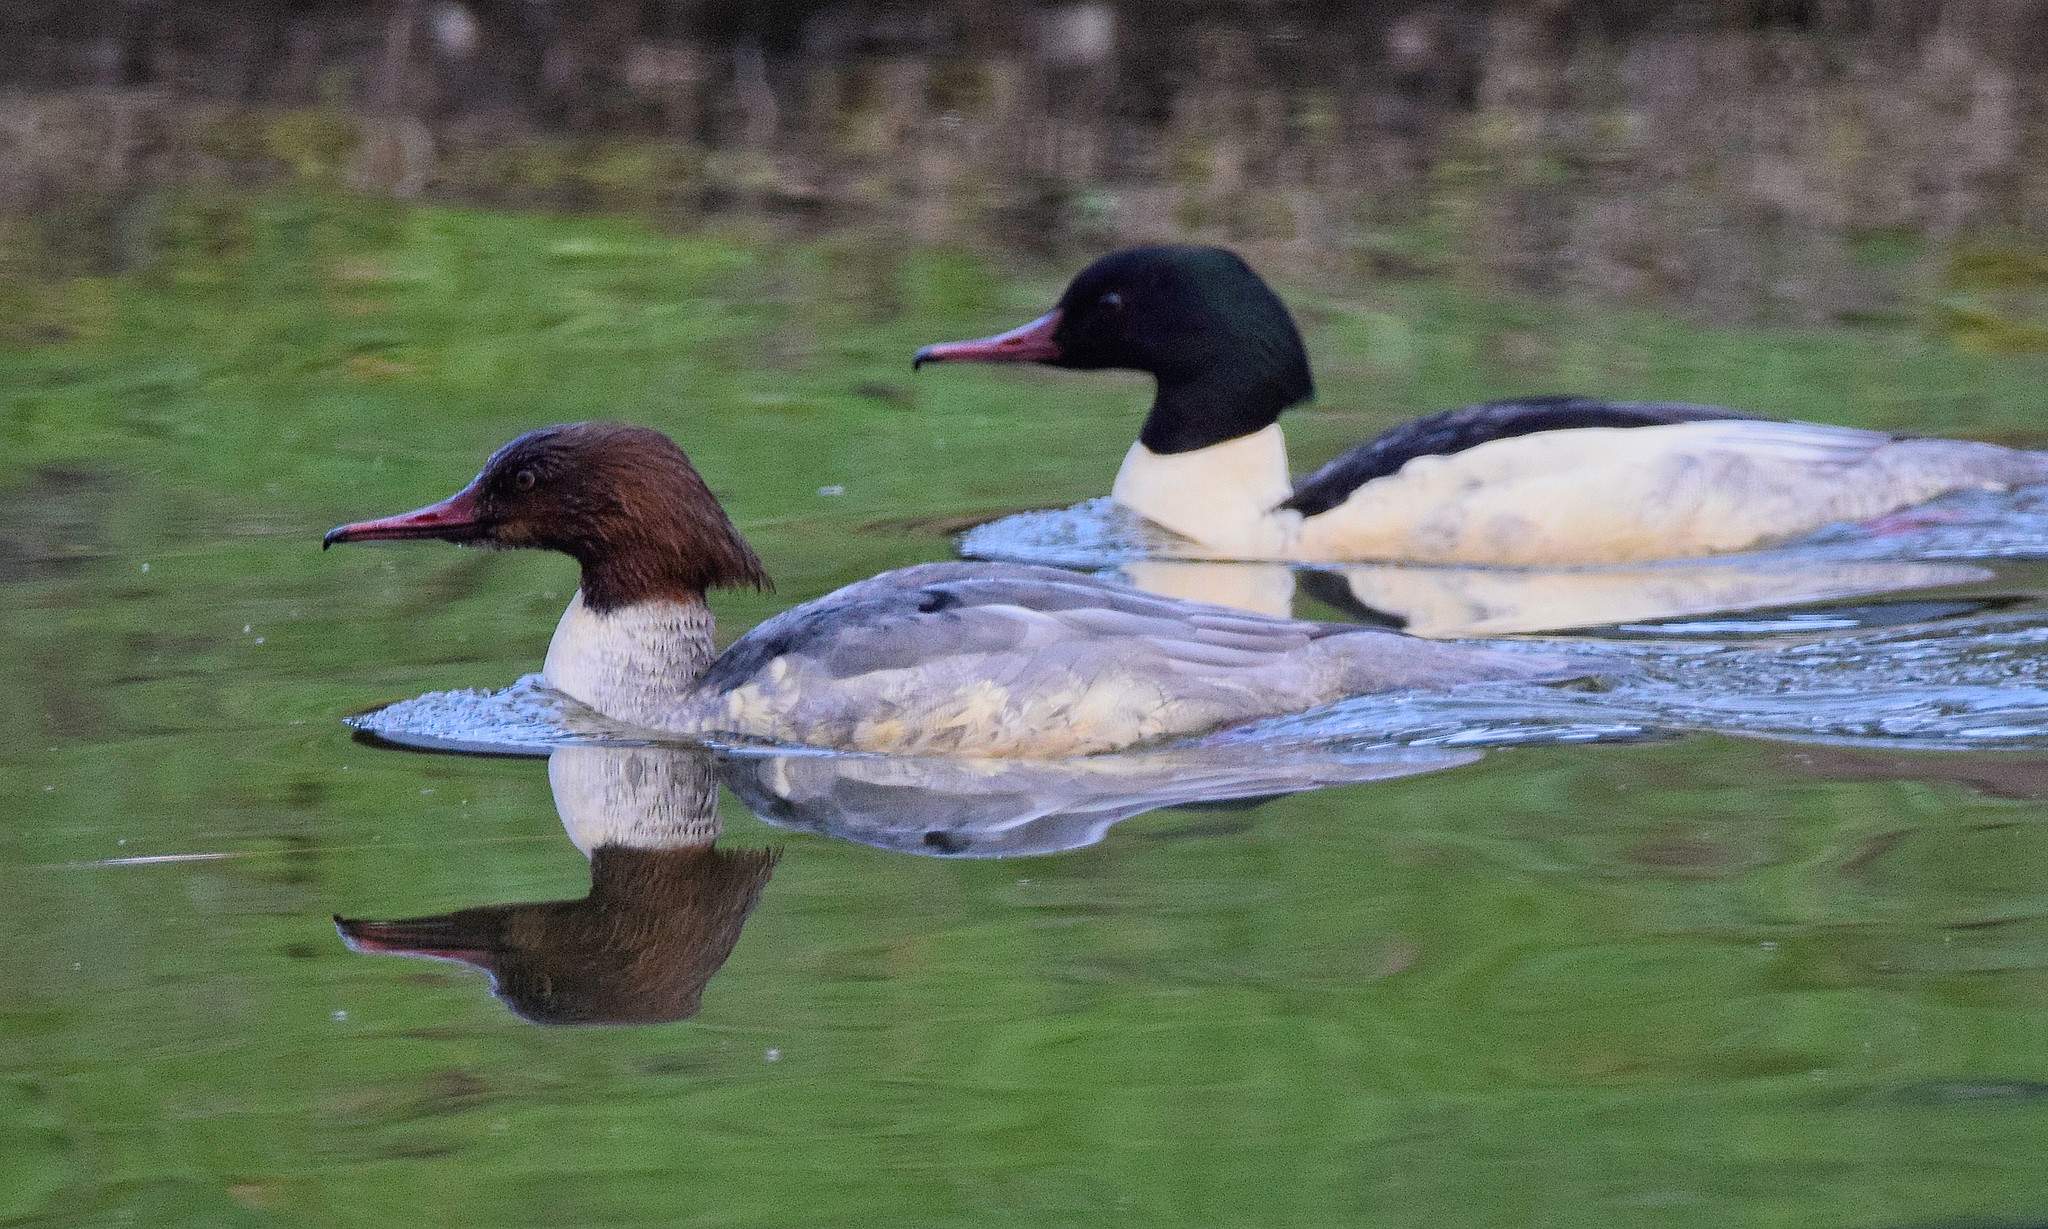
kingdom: Animalia
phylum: Chordata
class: Aves
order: Anseriformes
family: Anatidae
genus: Mergus
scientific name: Mergus merganser
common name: Common merganser
